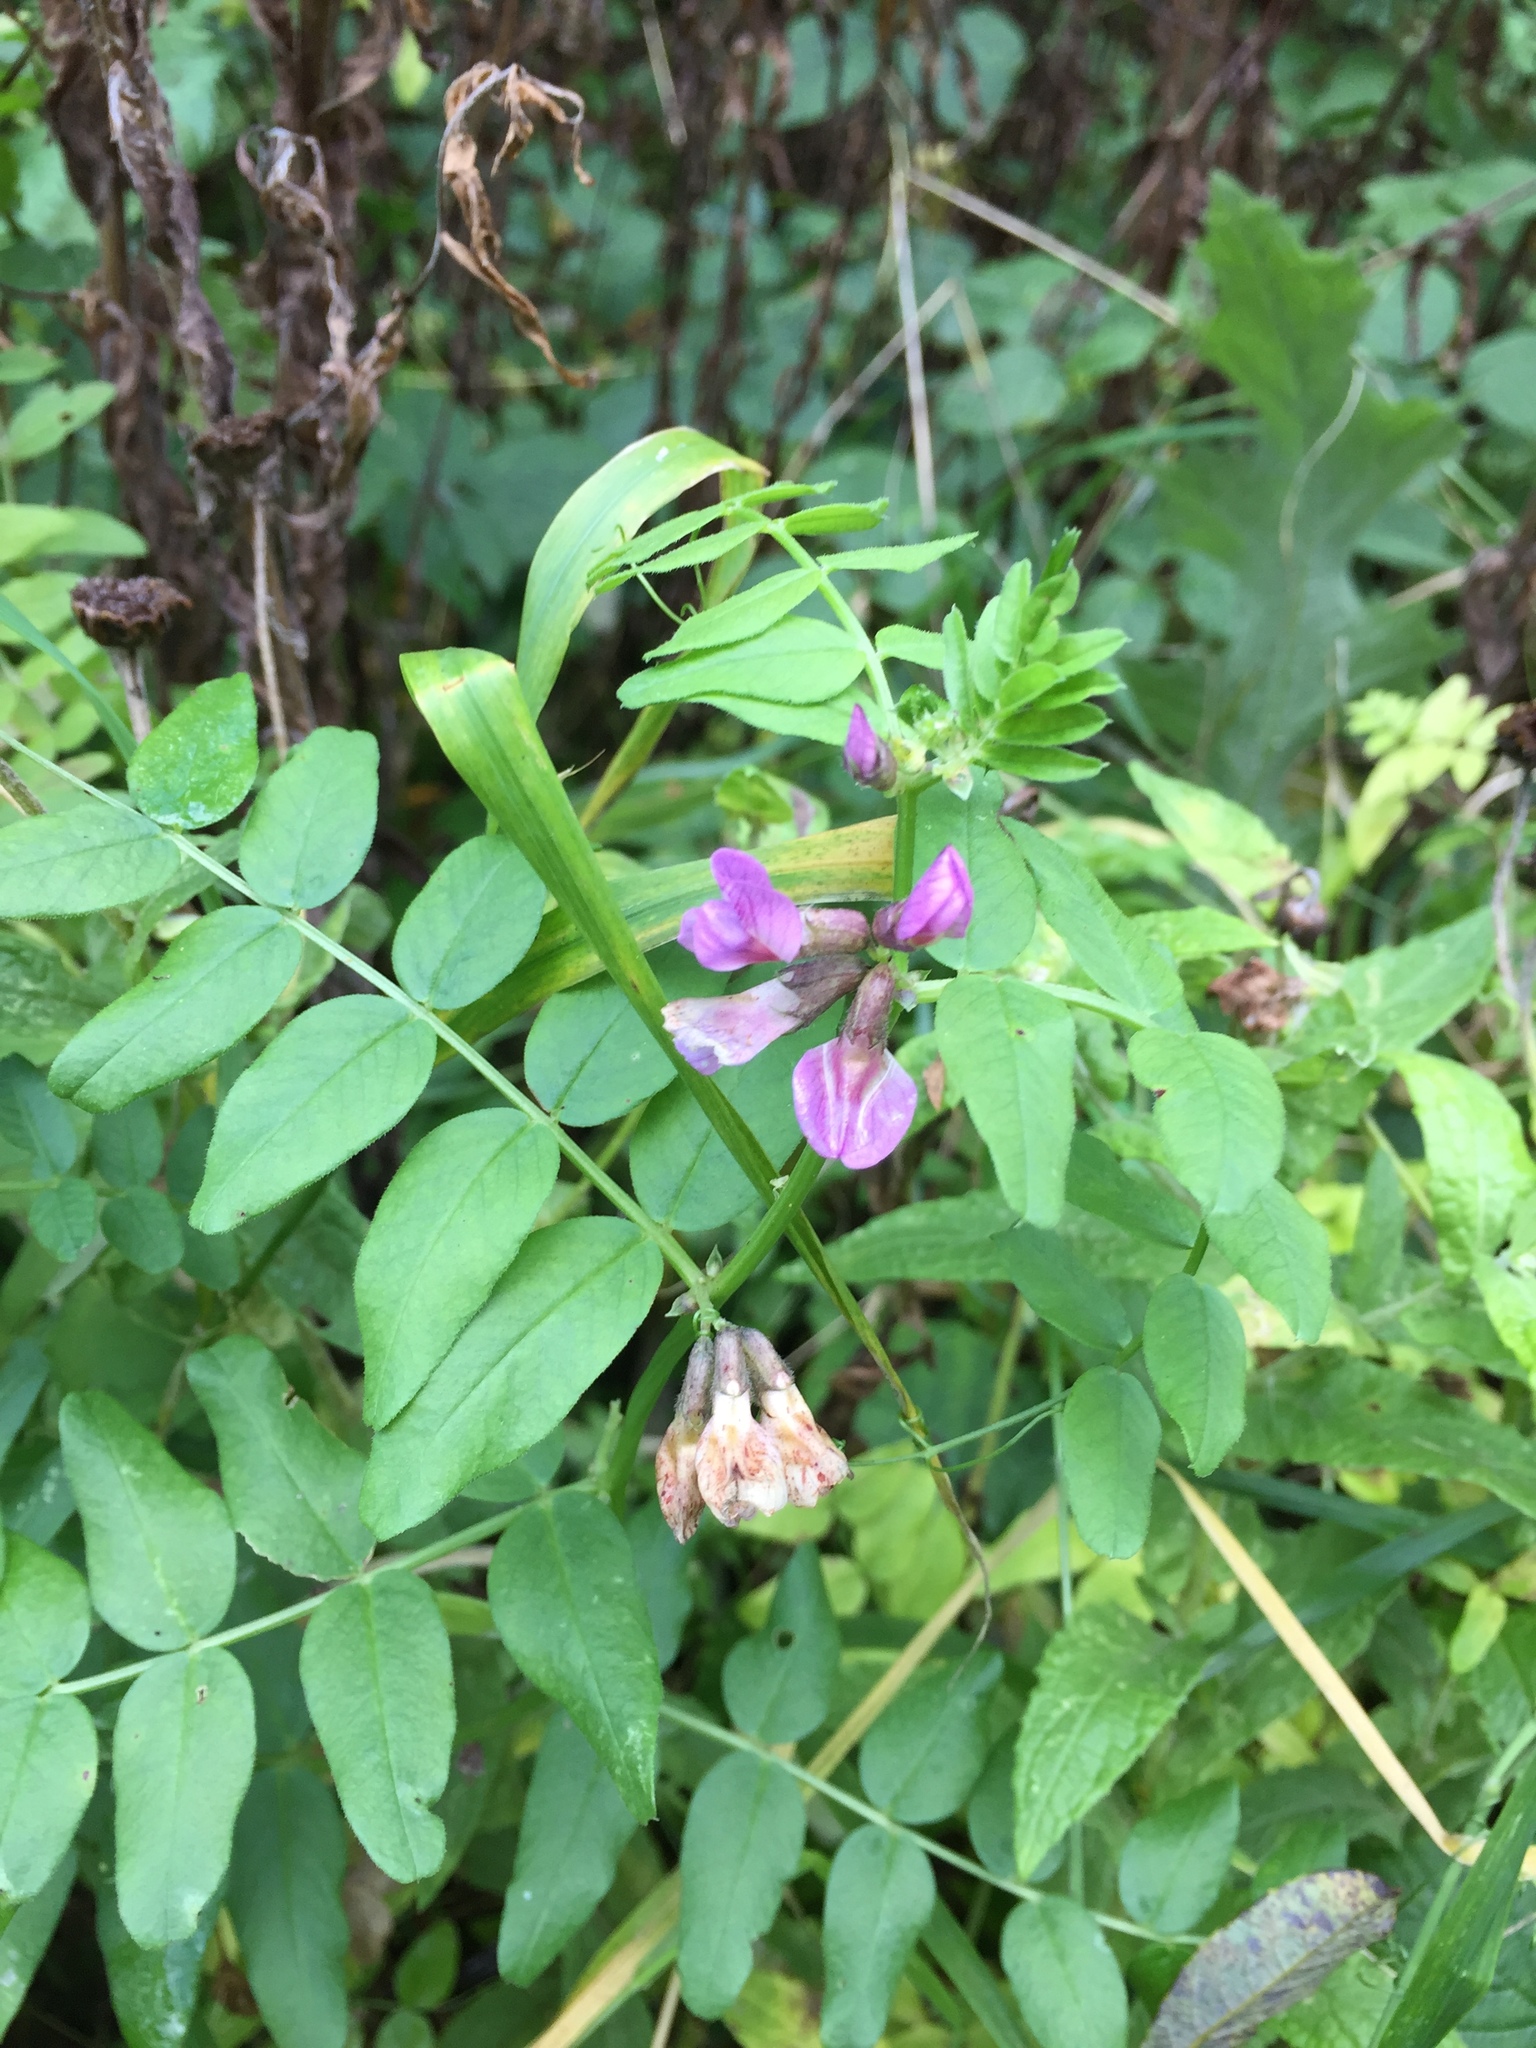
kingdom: Plantae
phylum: Tracheophyta
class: Magnoliopsida
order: Fabales
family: Fabaceae
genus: Vicia
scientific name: Vicia sepium
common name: Bush vetch
